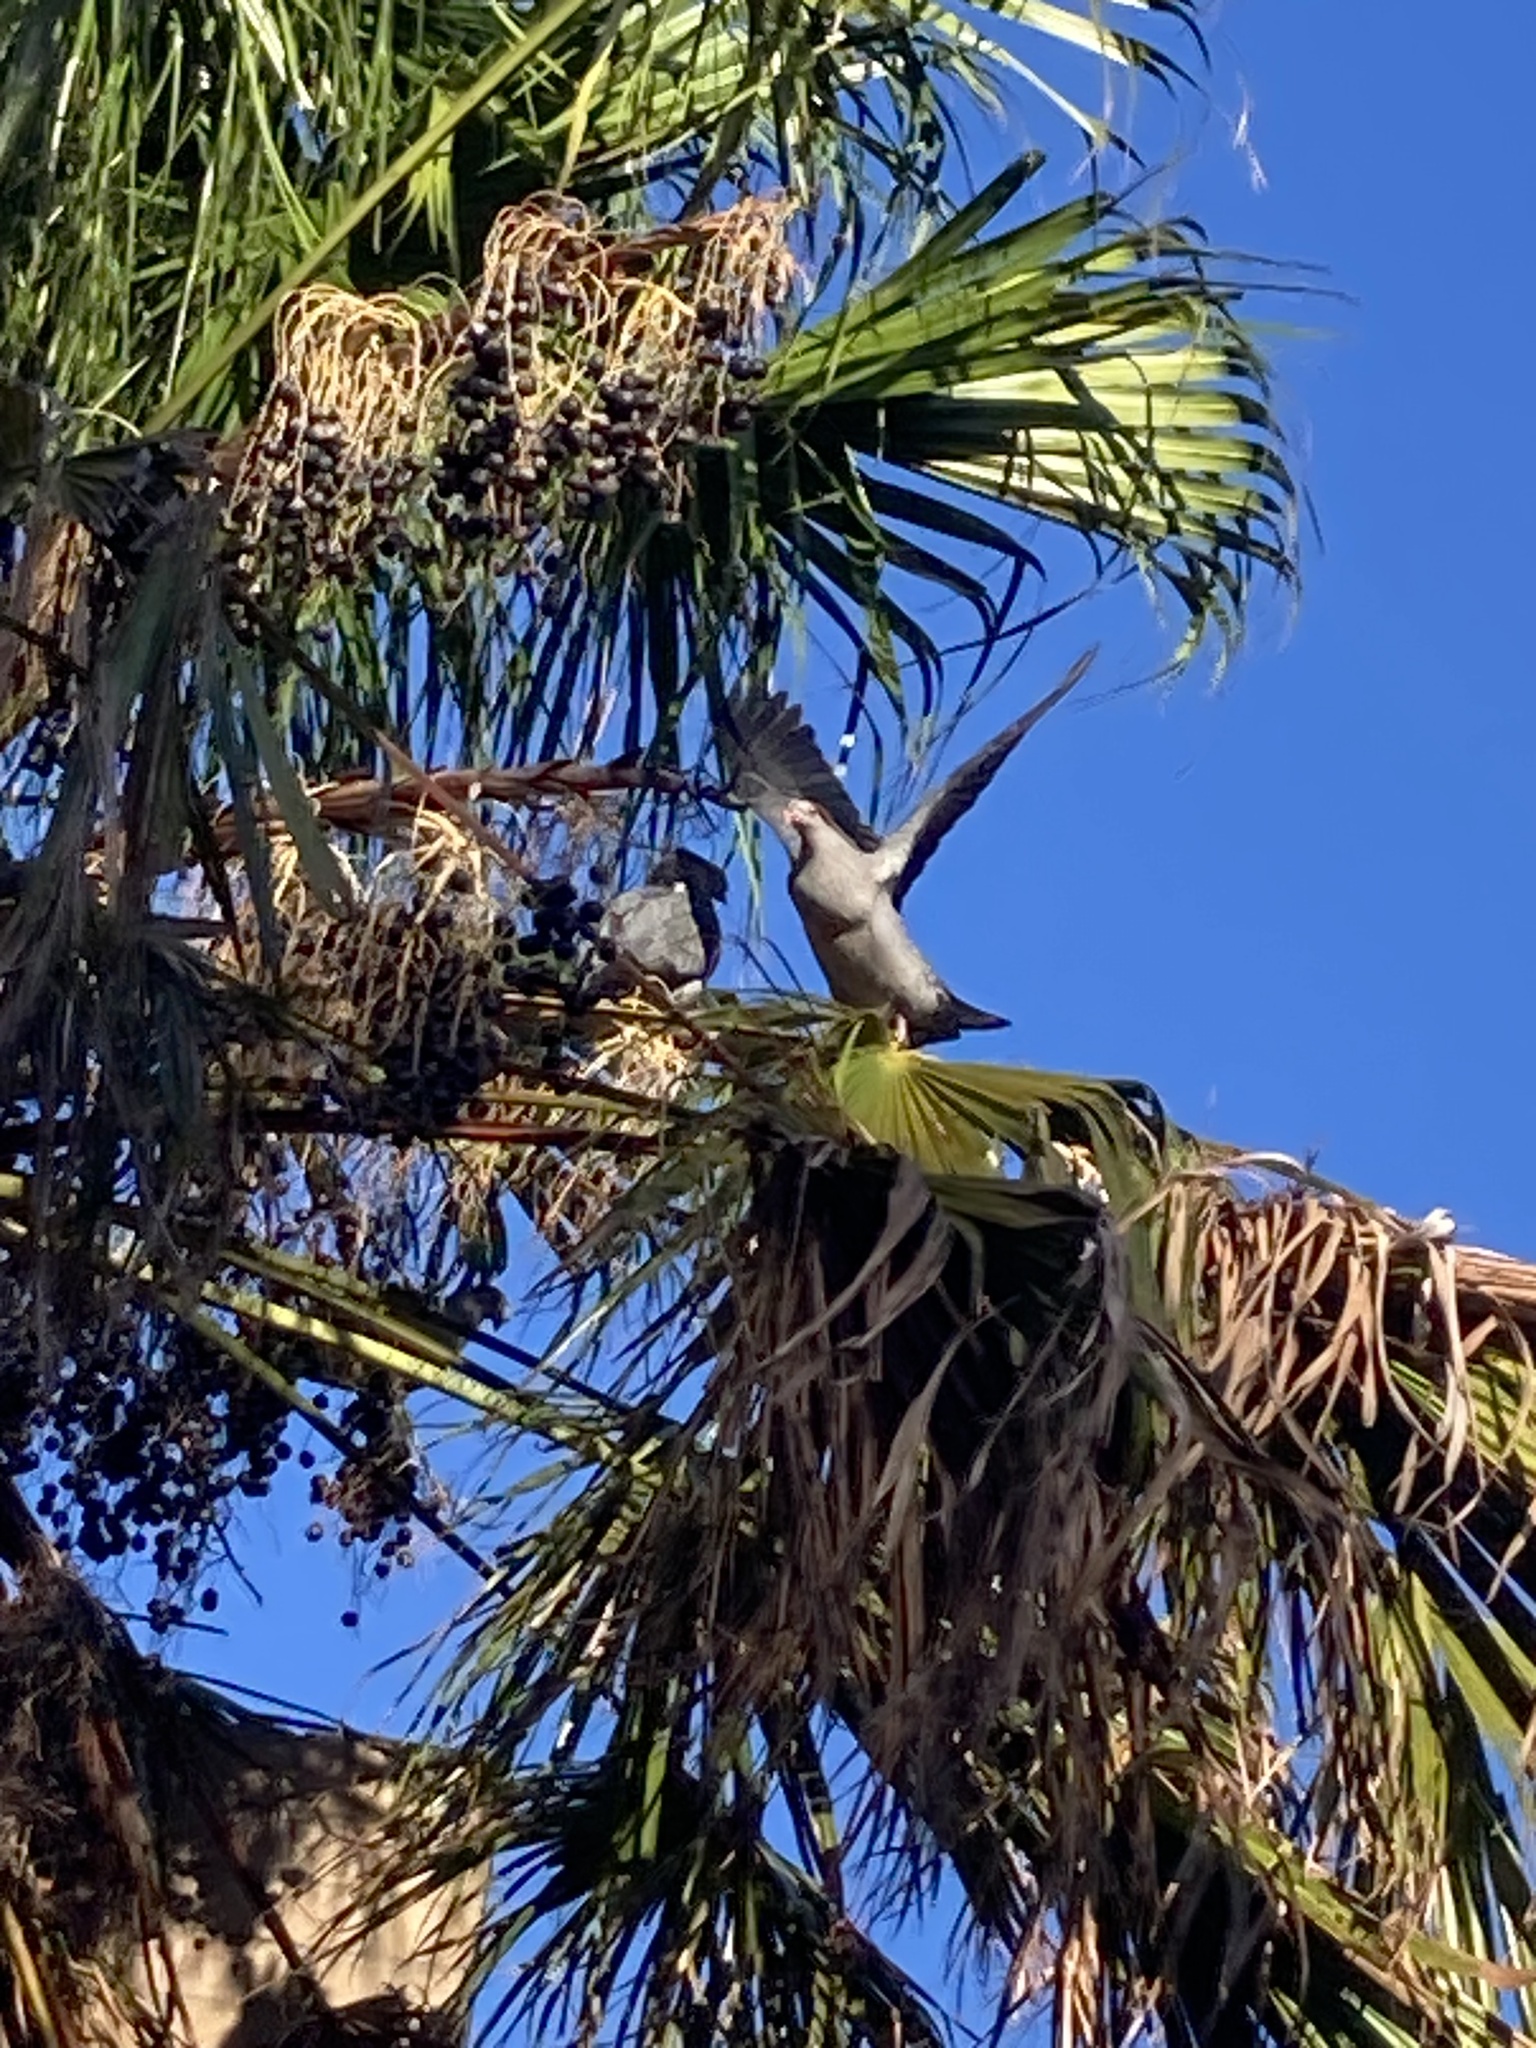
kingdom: Animalia
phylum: Chordata
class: Aves
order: Columbiformes
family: Columbidae
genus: Lopholaimus
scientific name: Lopholaimus antarcticus
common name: Topknot pigeon
